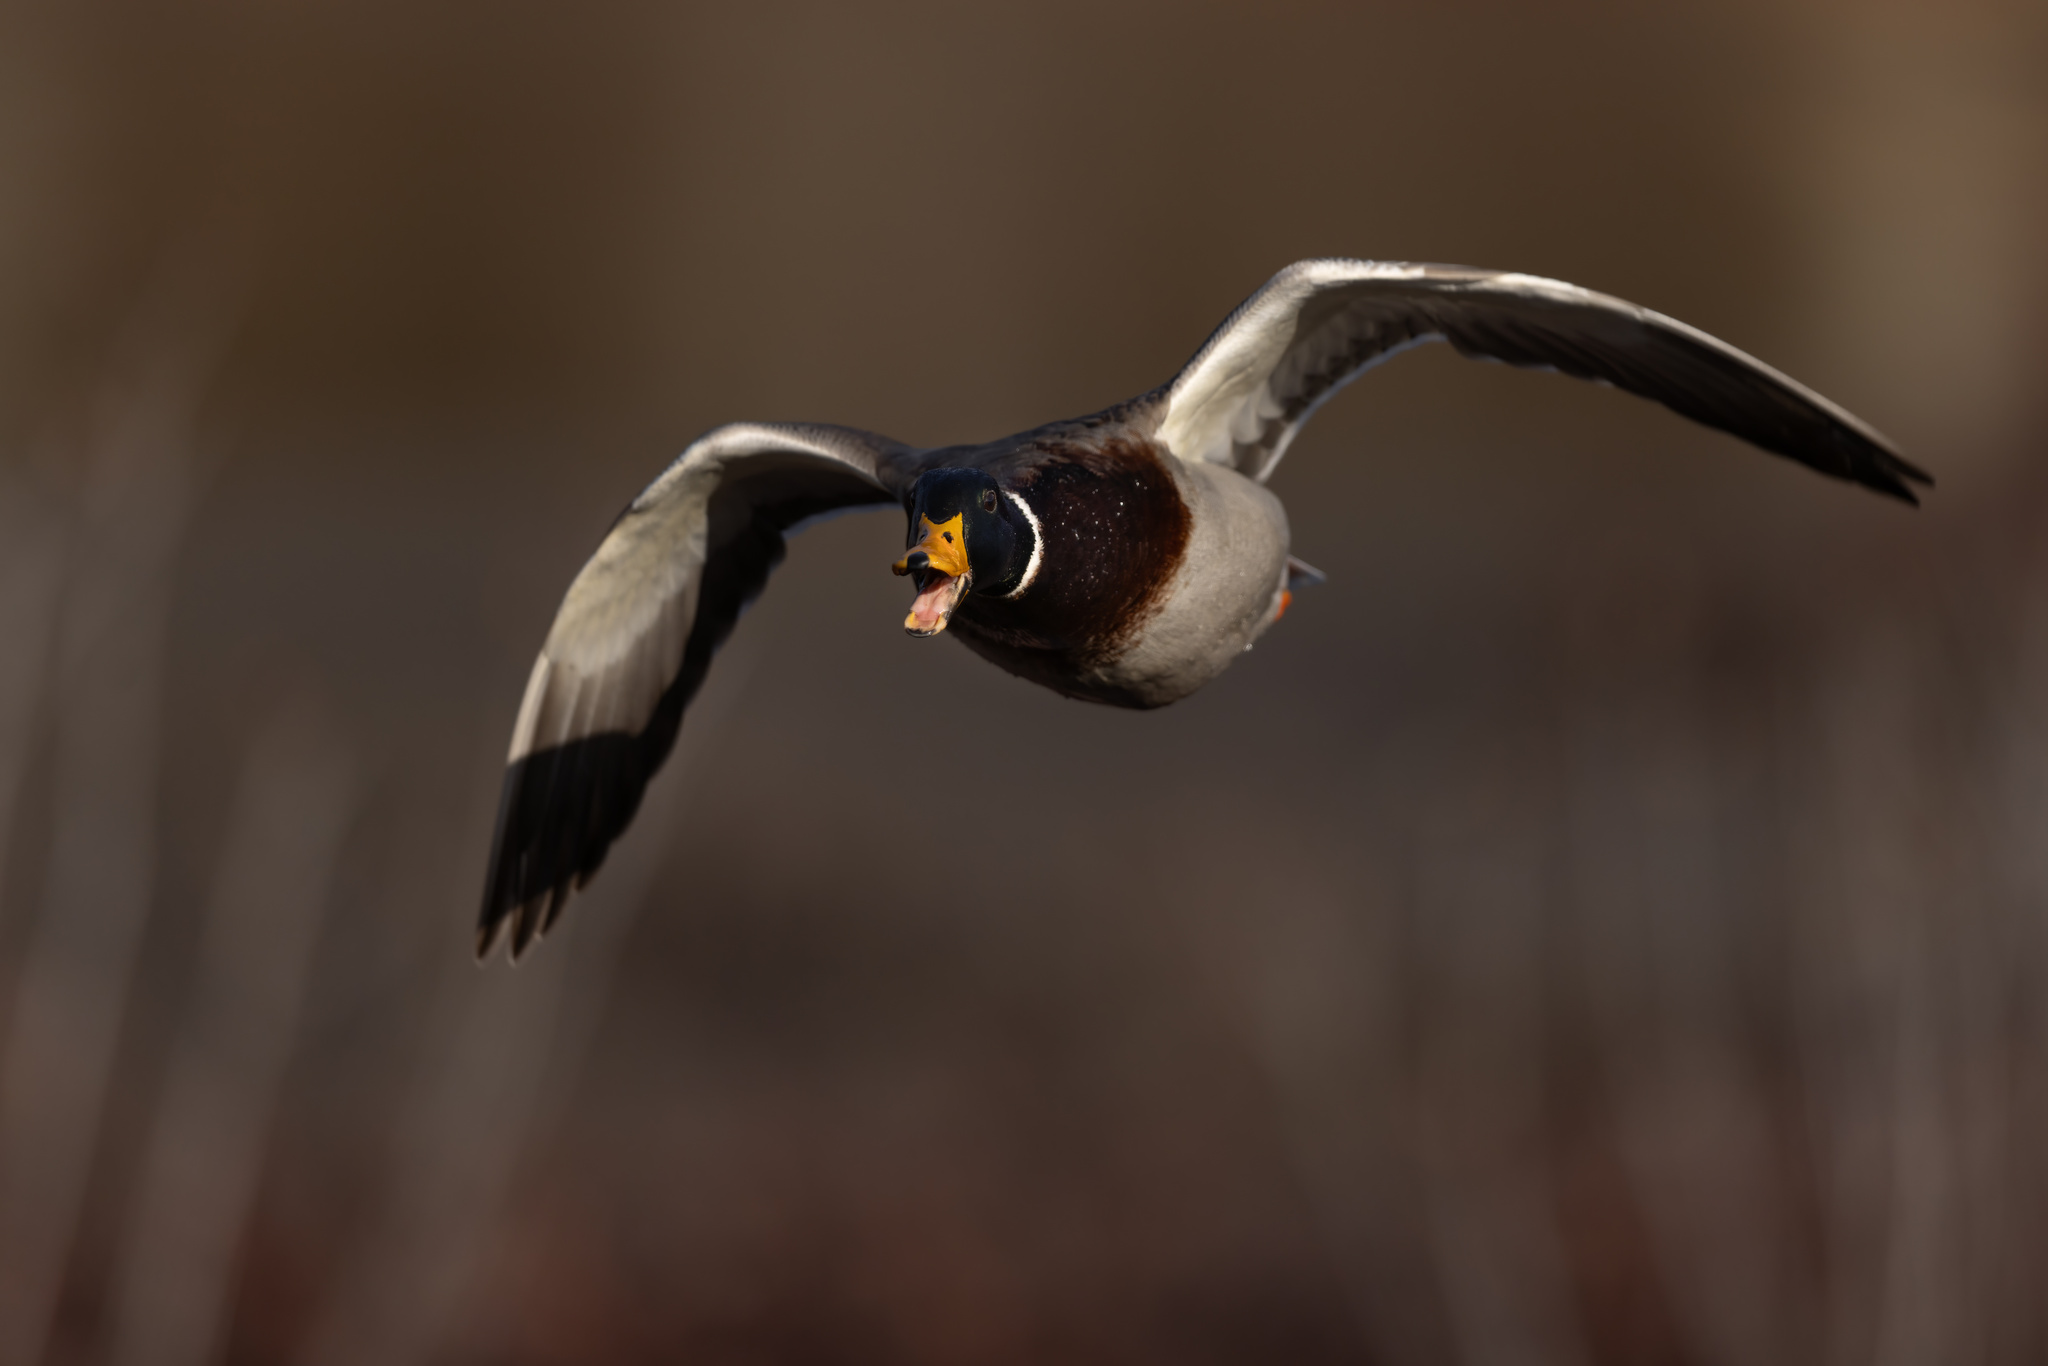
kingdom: Animalia
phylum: Chordata
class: Aves
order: Anseriformes
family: Anatidae
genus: Anas
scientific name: Anas platyrhynchos
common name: Mallard
